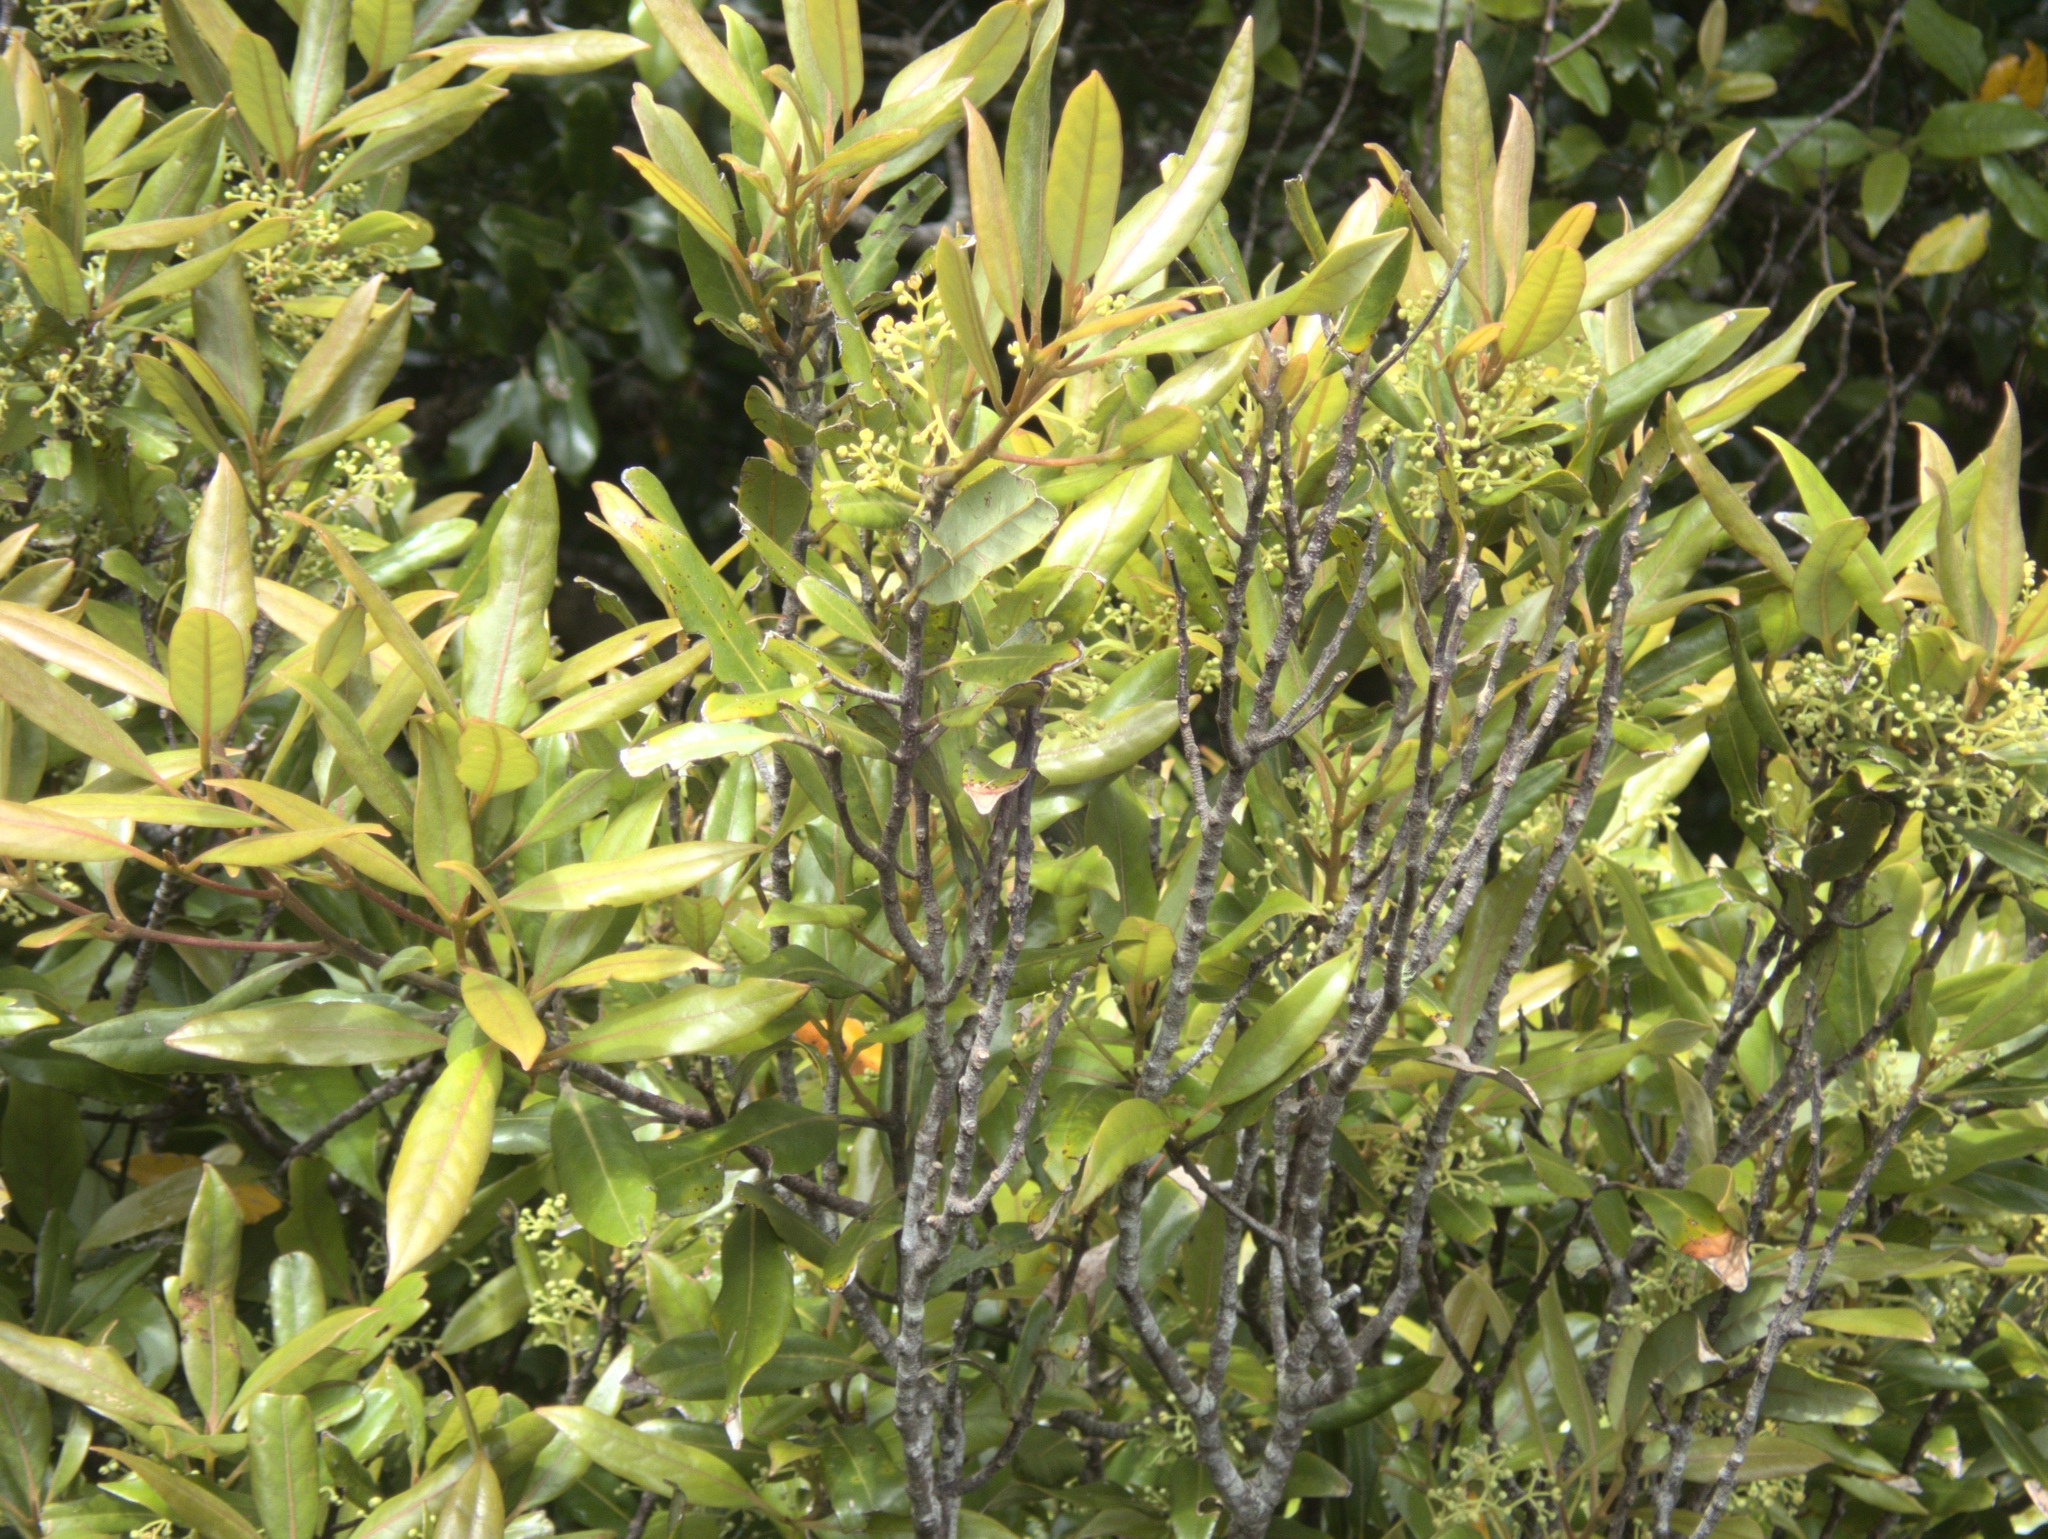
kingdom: Plantae
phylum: Tracheophyta
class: Magnoliopsida
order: Laurales
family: Lauraceae
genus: Beilschmiedia
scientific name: Beilschmiedia tawa
